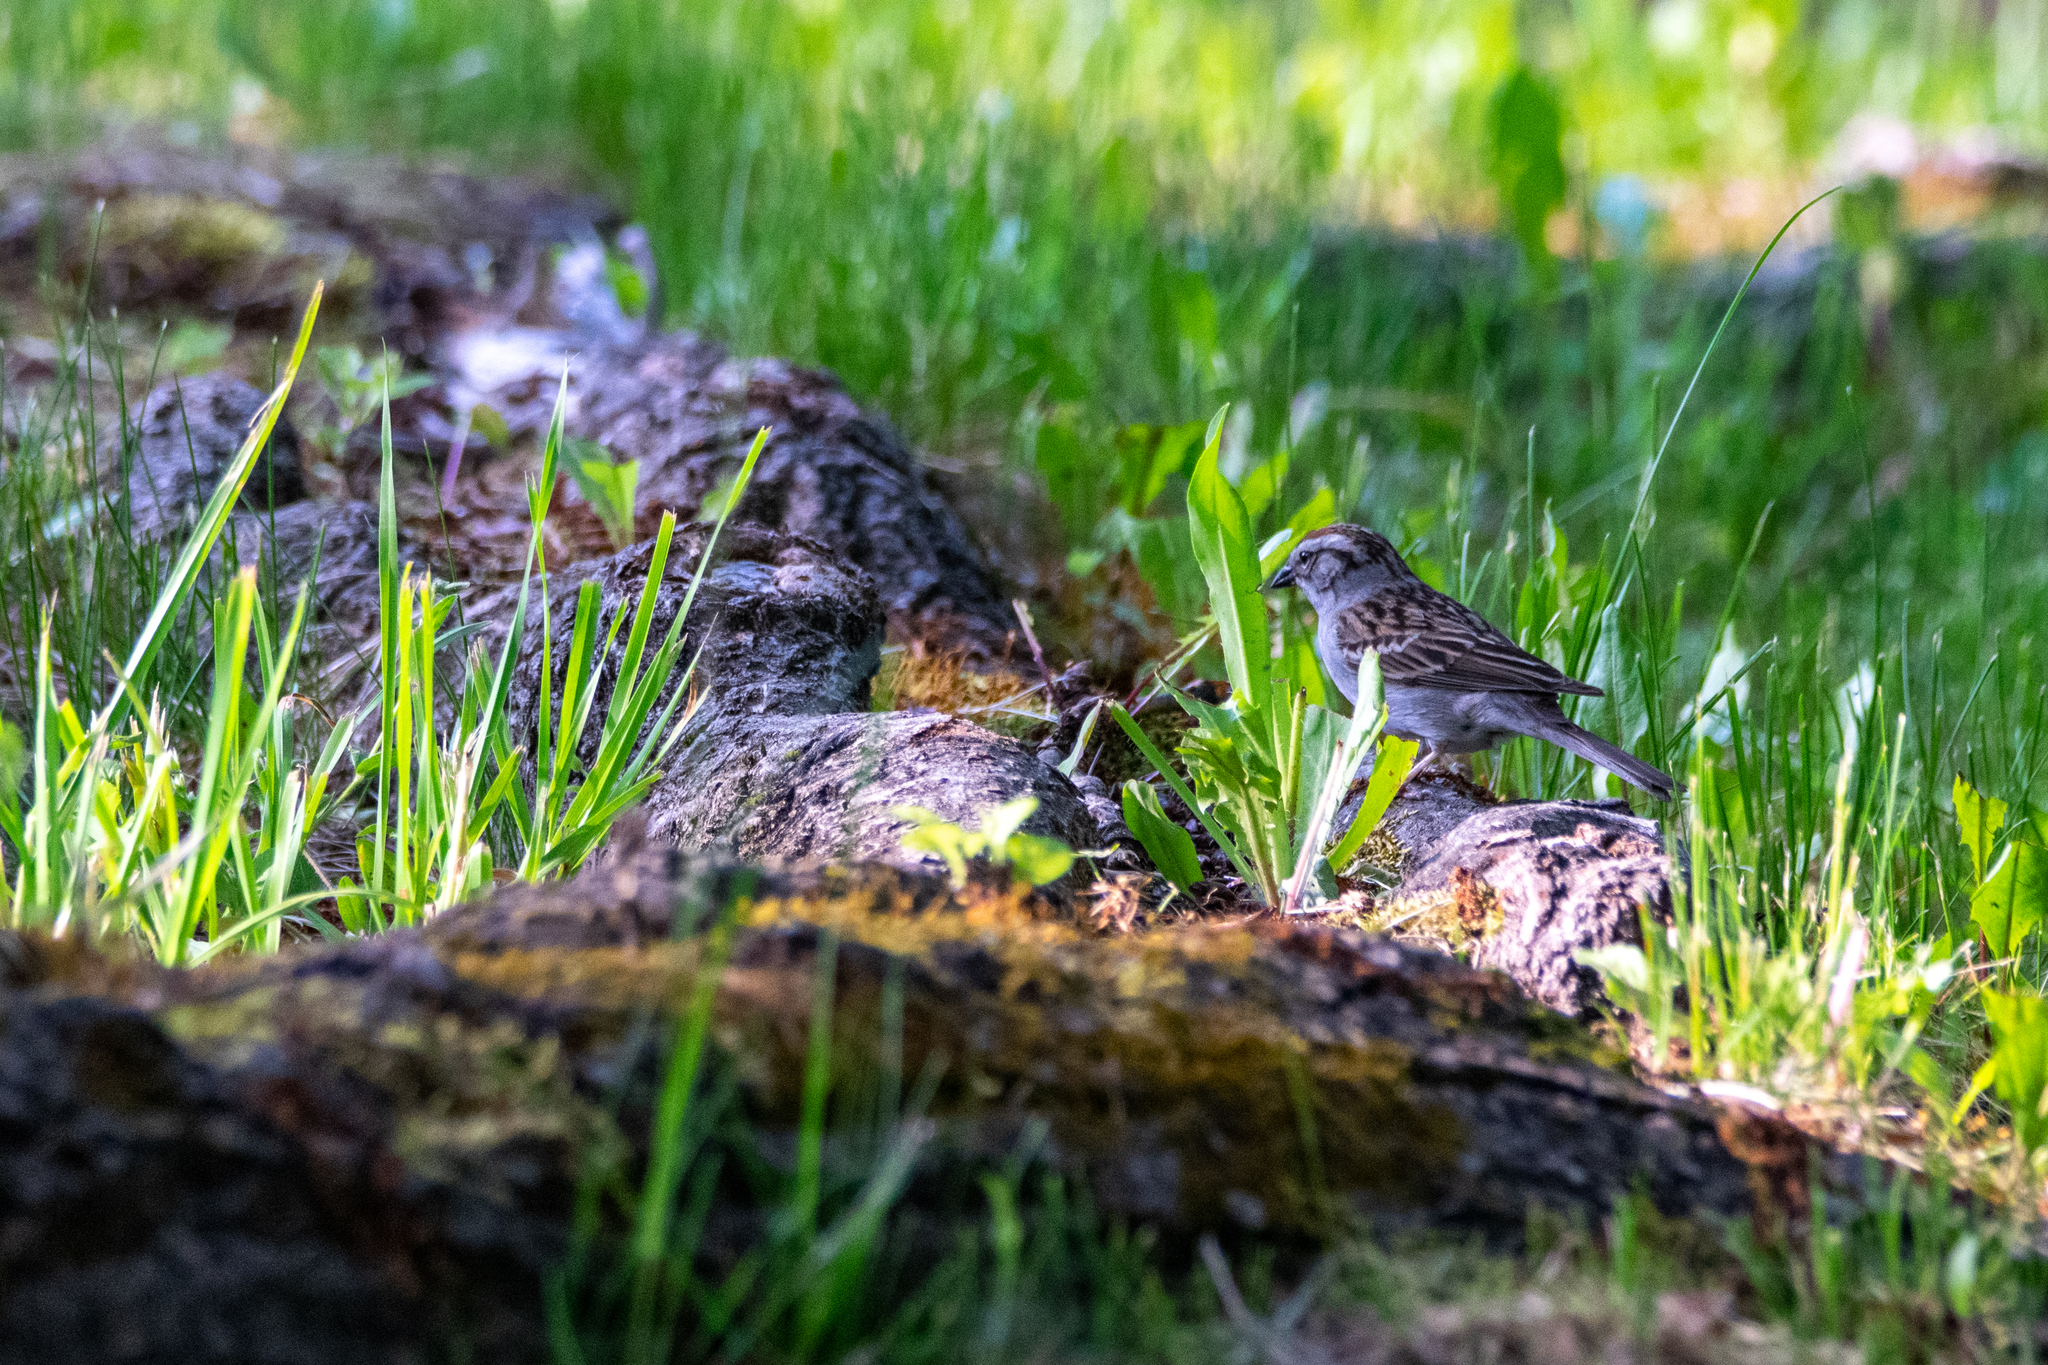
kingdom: Animalia
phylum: Chordata
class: Aves
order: Passeriformes
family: Passerellidae
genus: Spizella
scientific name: Spizella passerina
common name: Chipping sparrow
